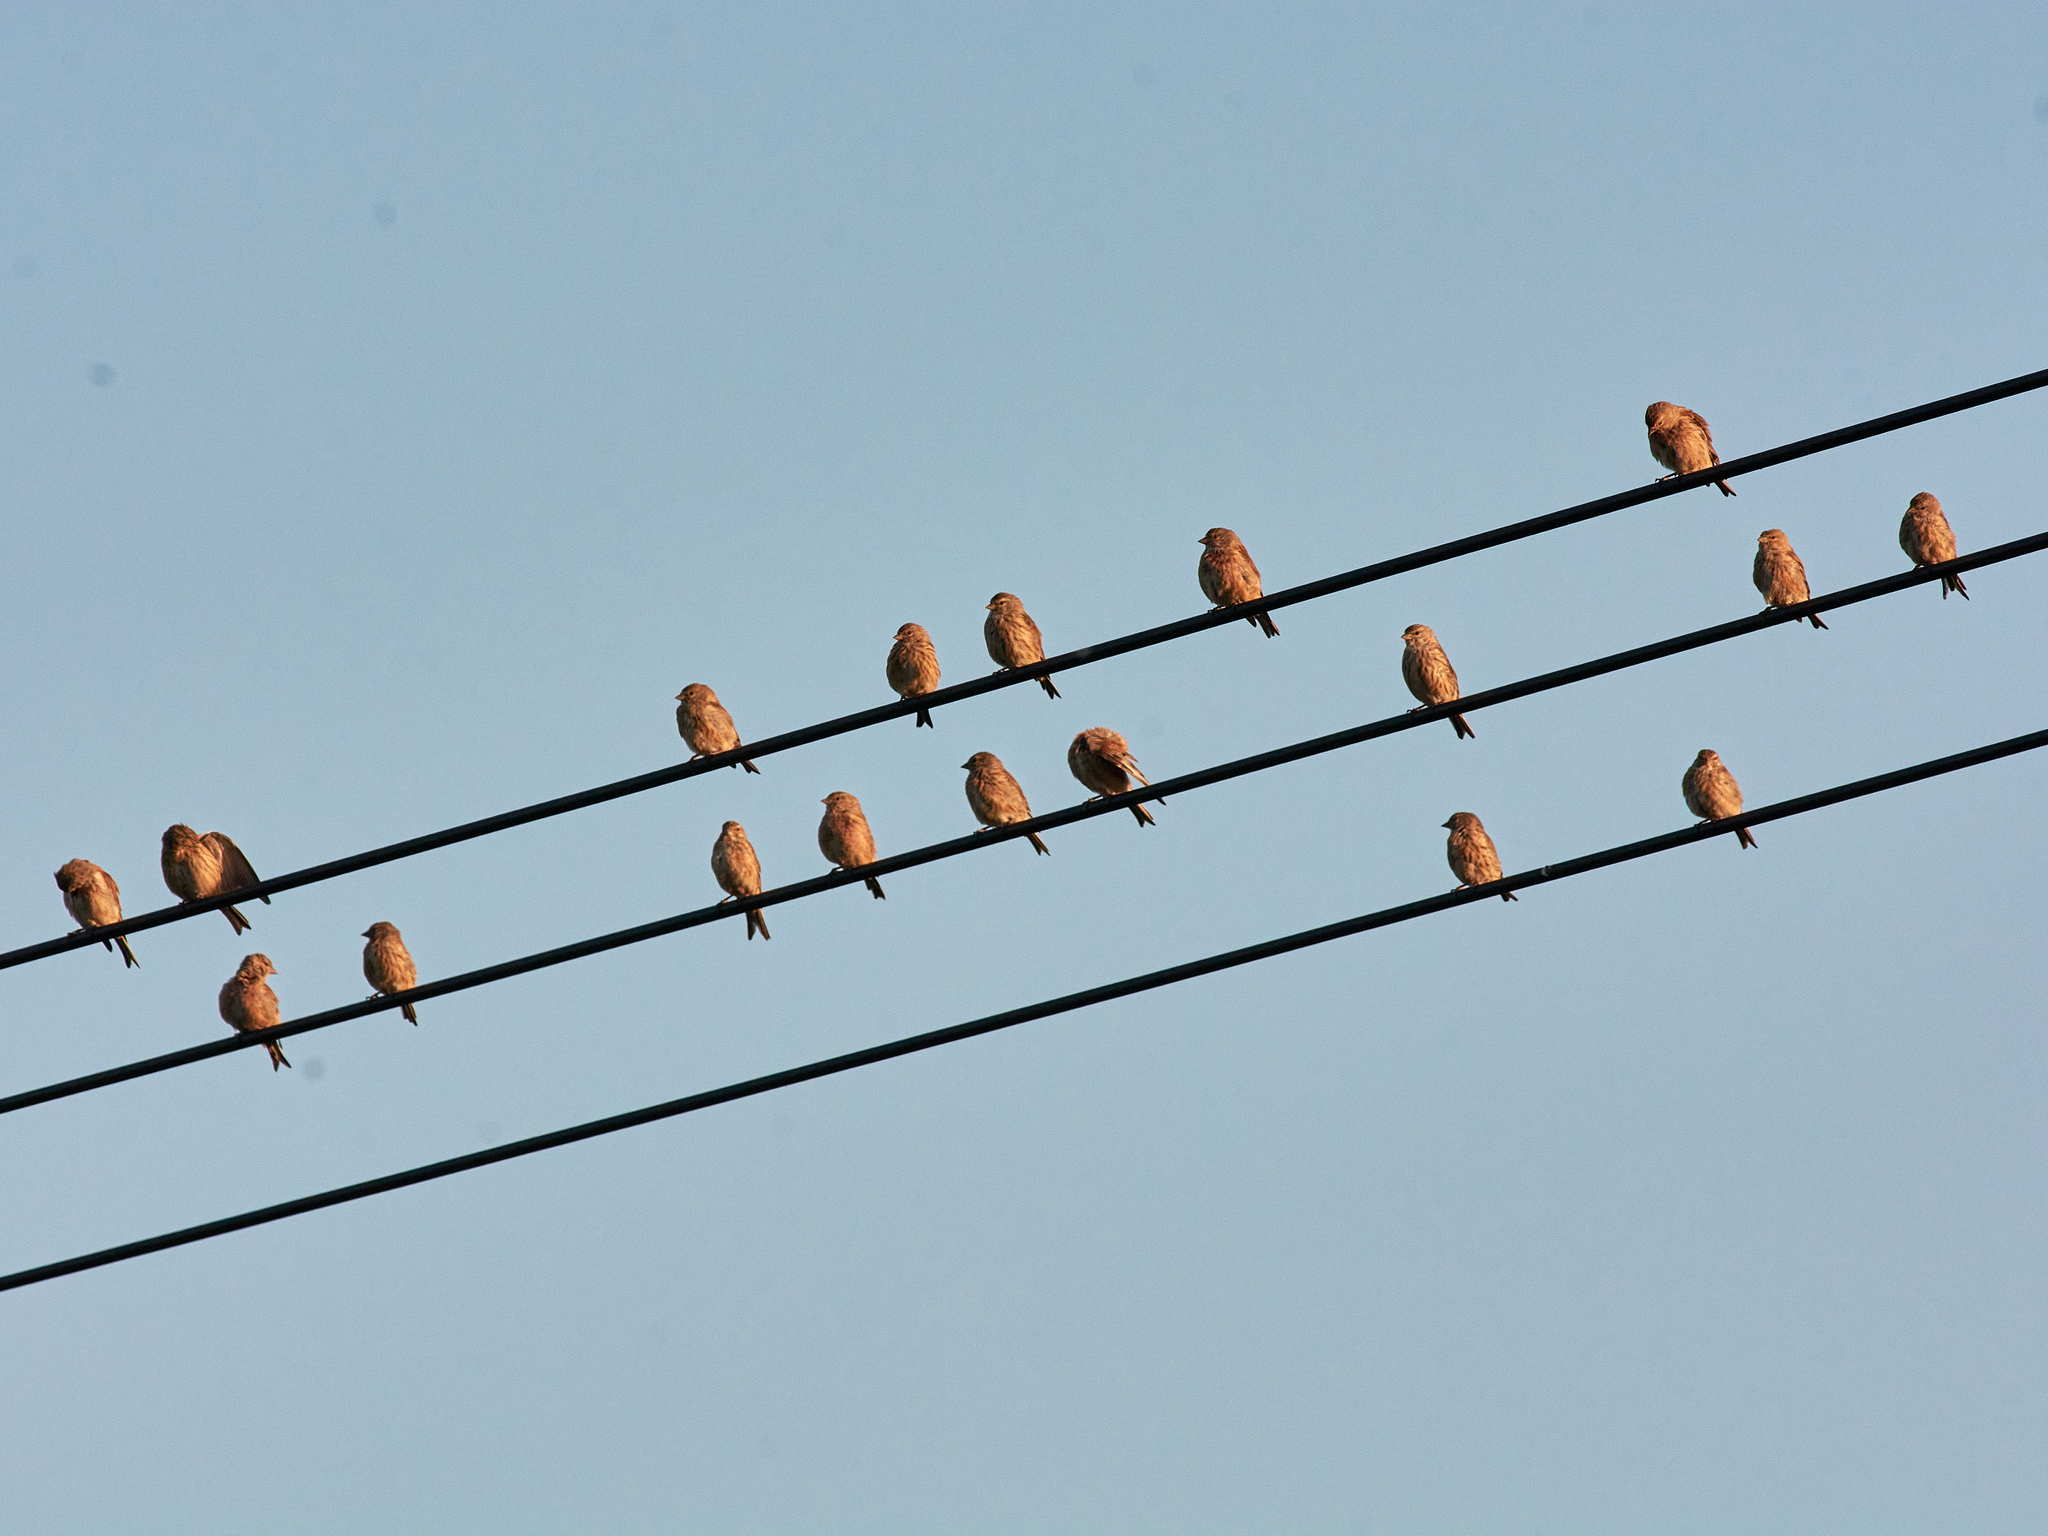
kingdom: Animalia
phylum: Chordata
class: Aves
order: Passeriformes
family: Fringillidae
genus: Linaria
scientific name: Linaria cannabina
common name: Common linnet
